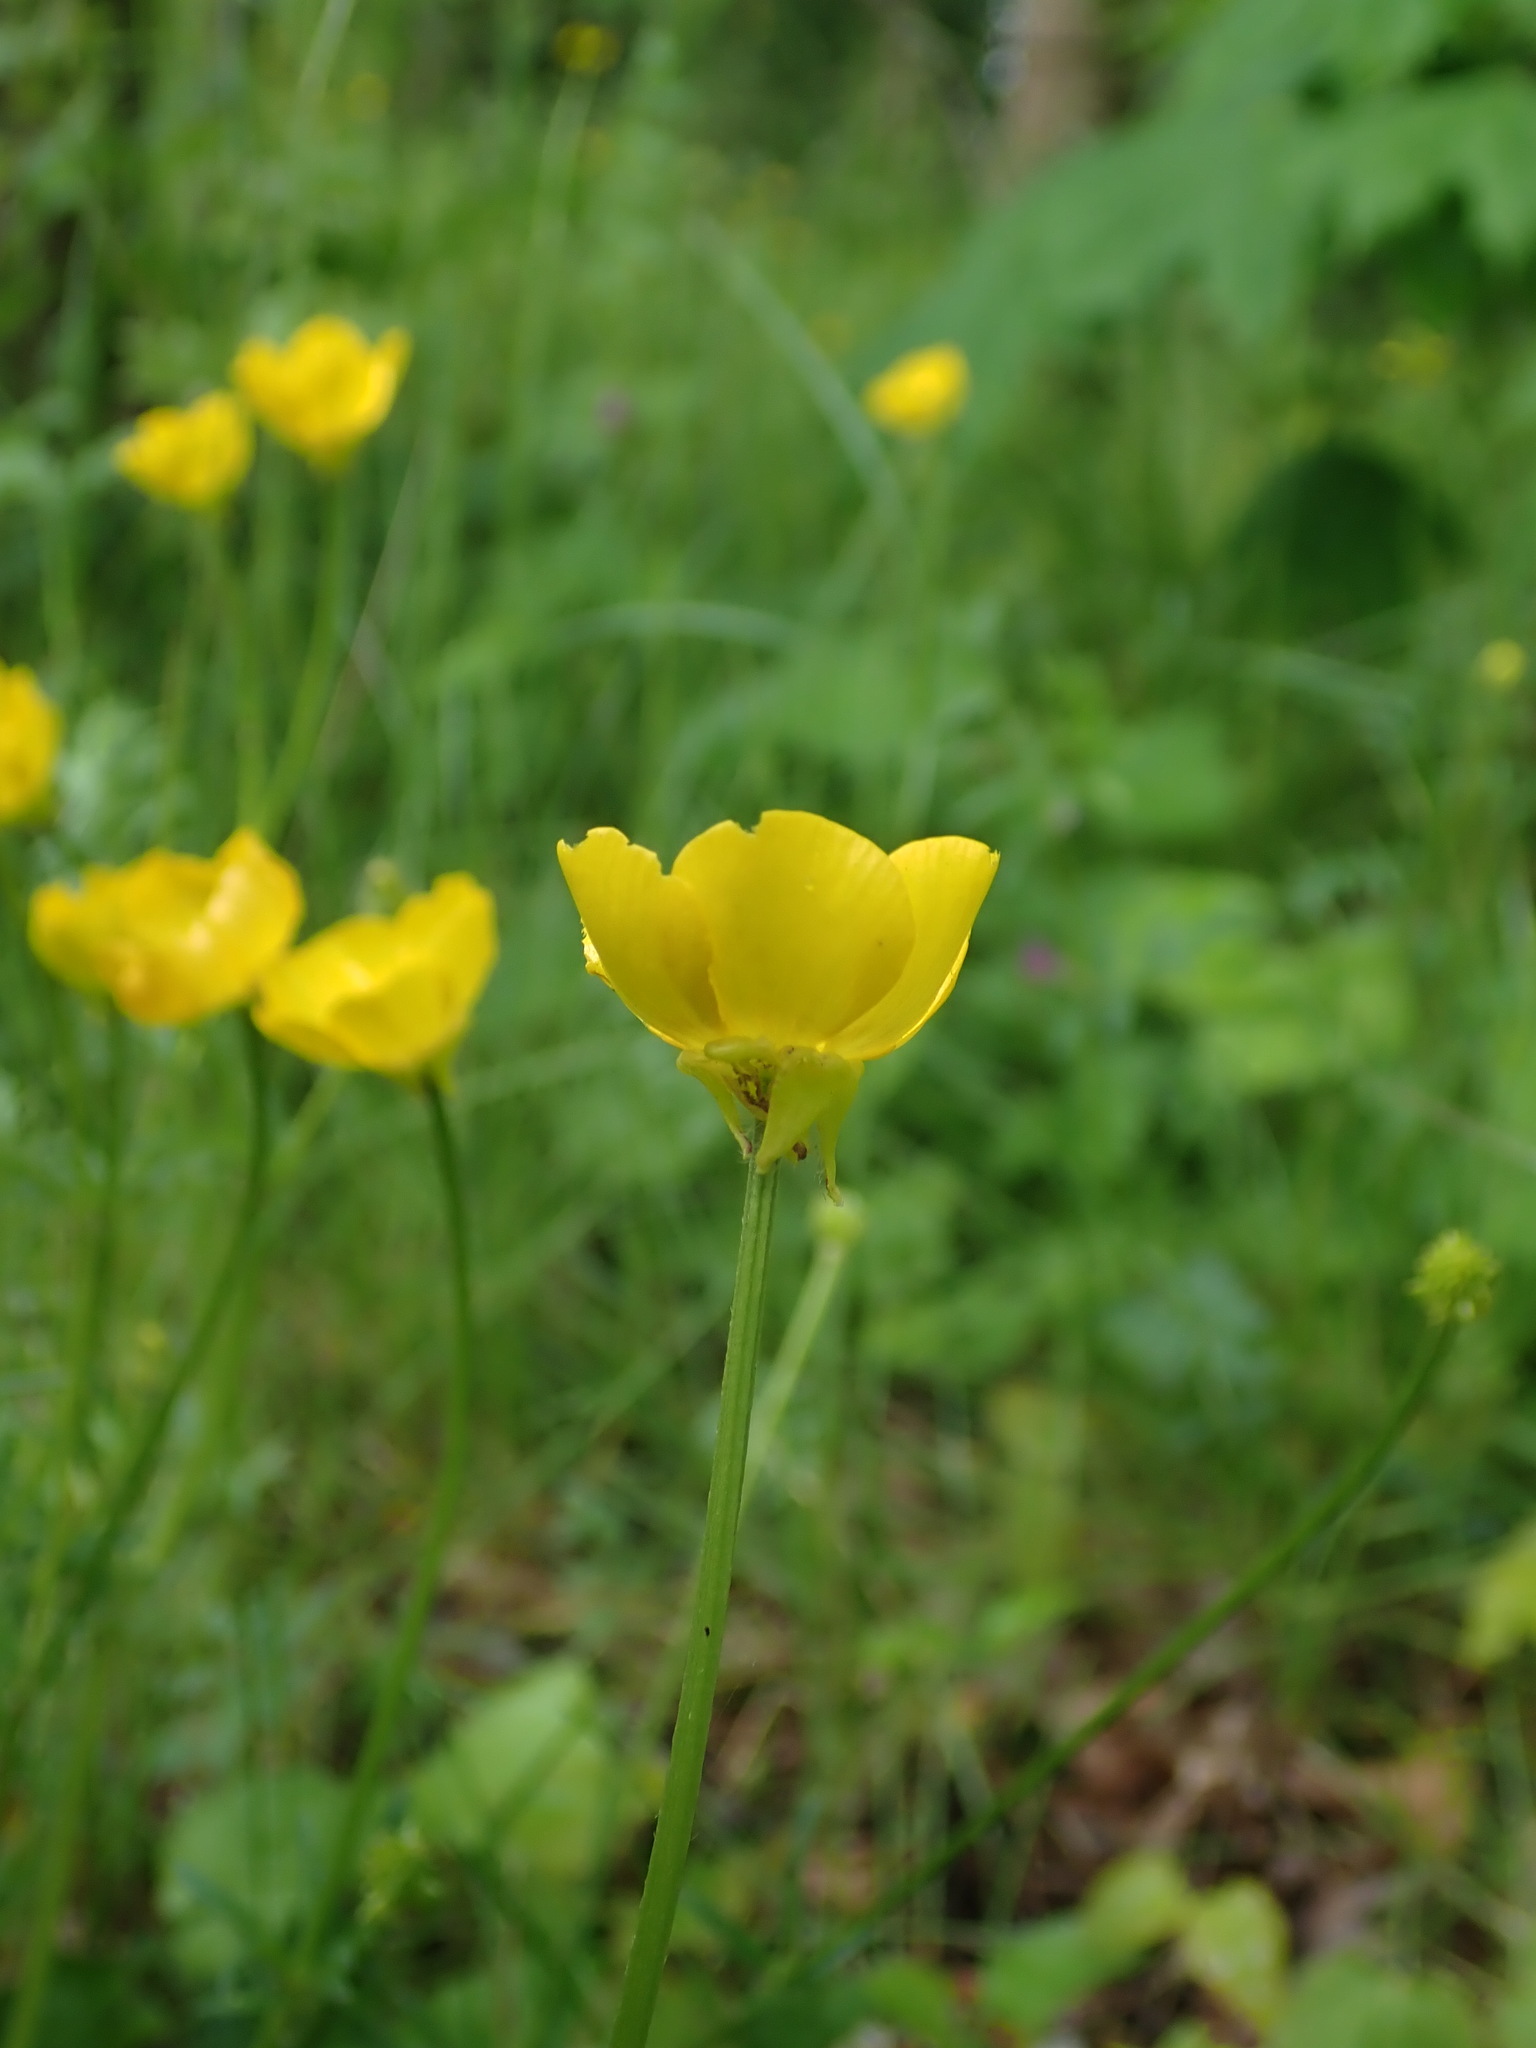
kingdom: Plantae
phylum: Tracheophyta
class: Magnoliopsida
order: Ranunculales
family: Ranunculaceae
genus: Ranunculus
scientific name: Ranunculus bulbosus
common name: Bulbous buttercup
